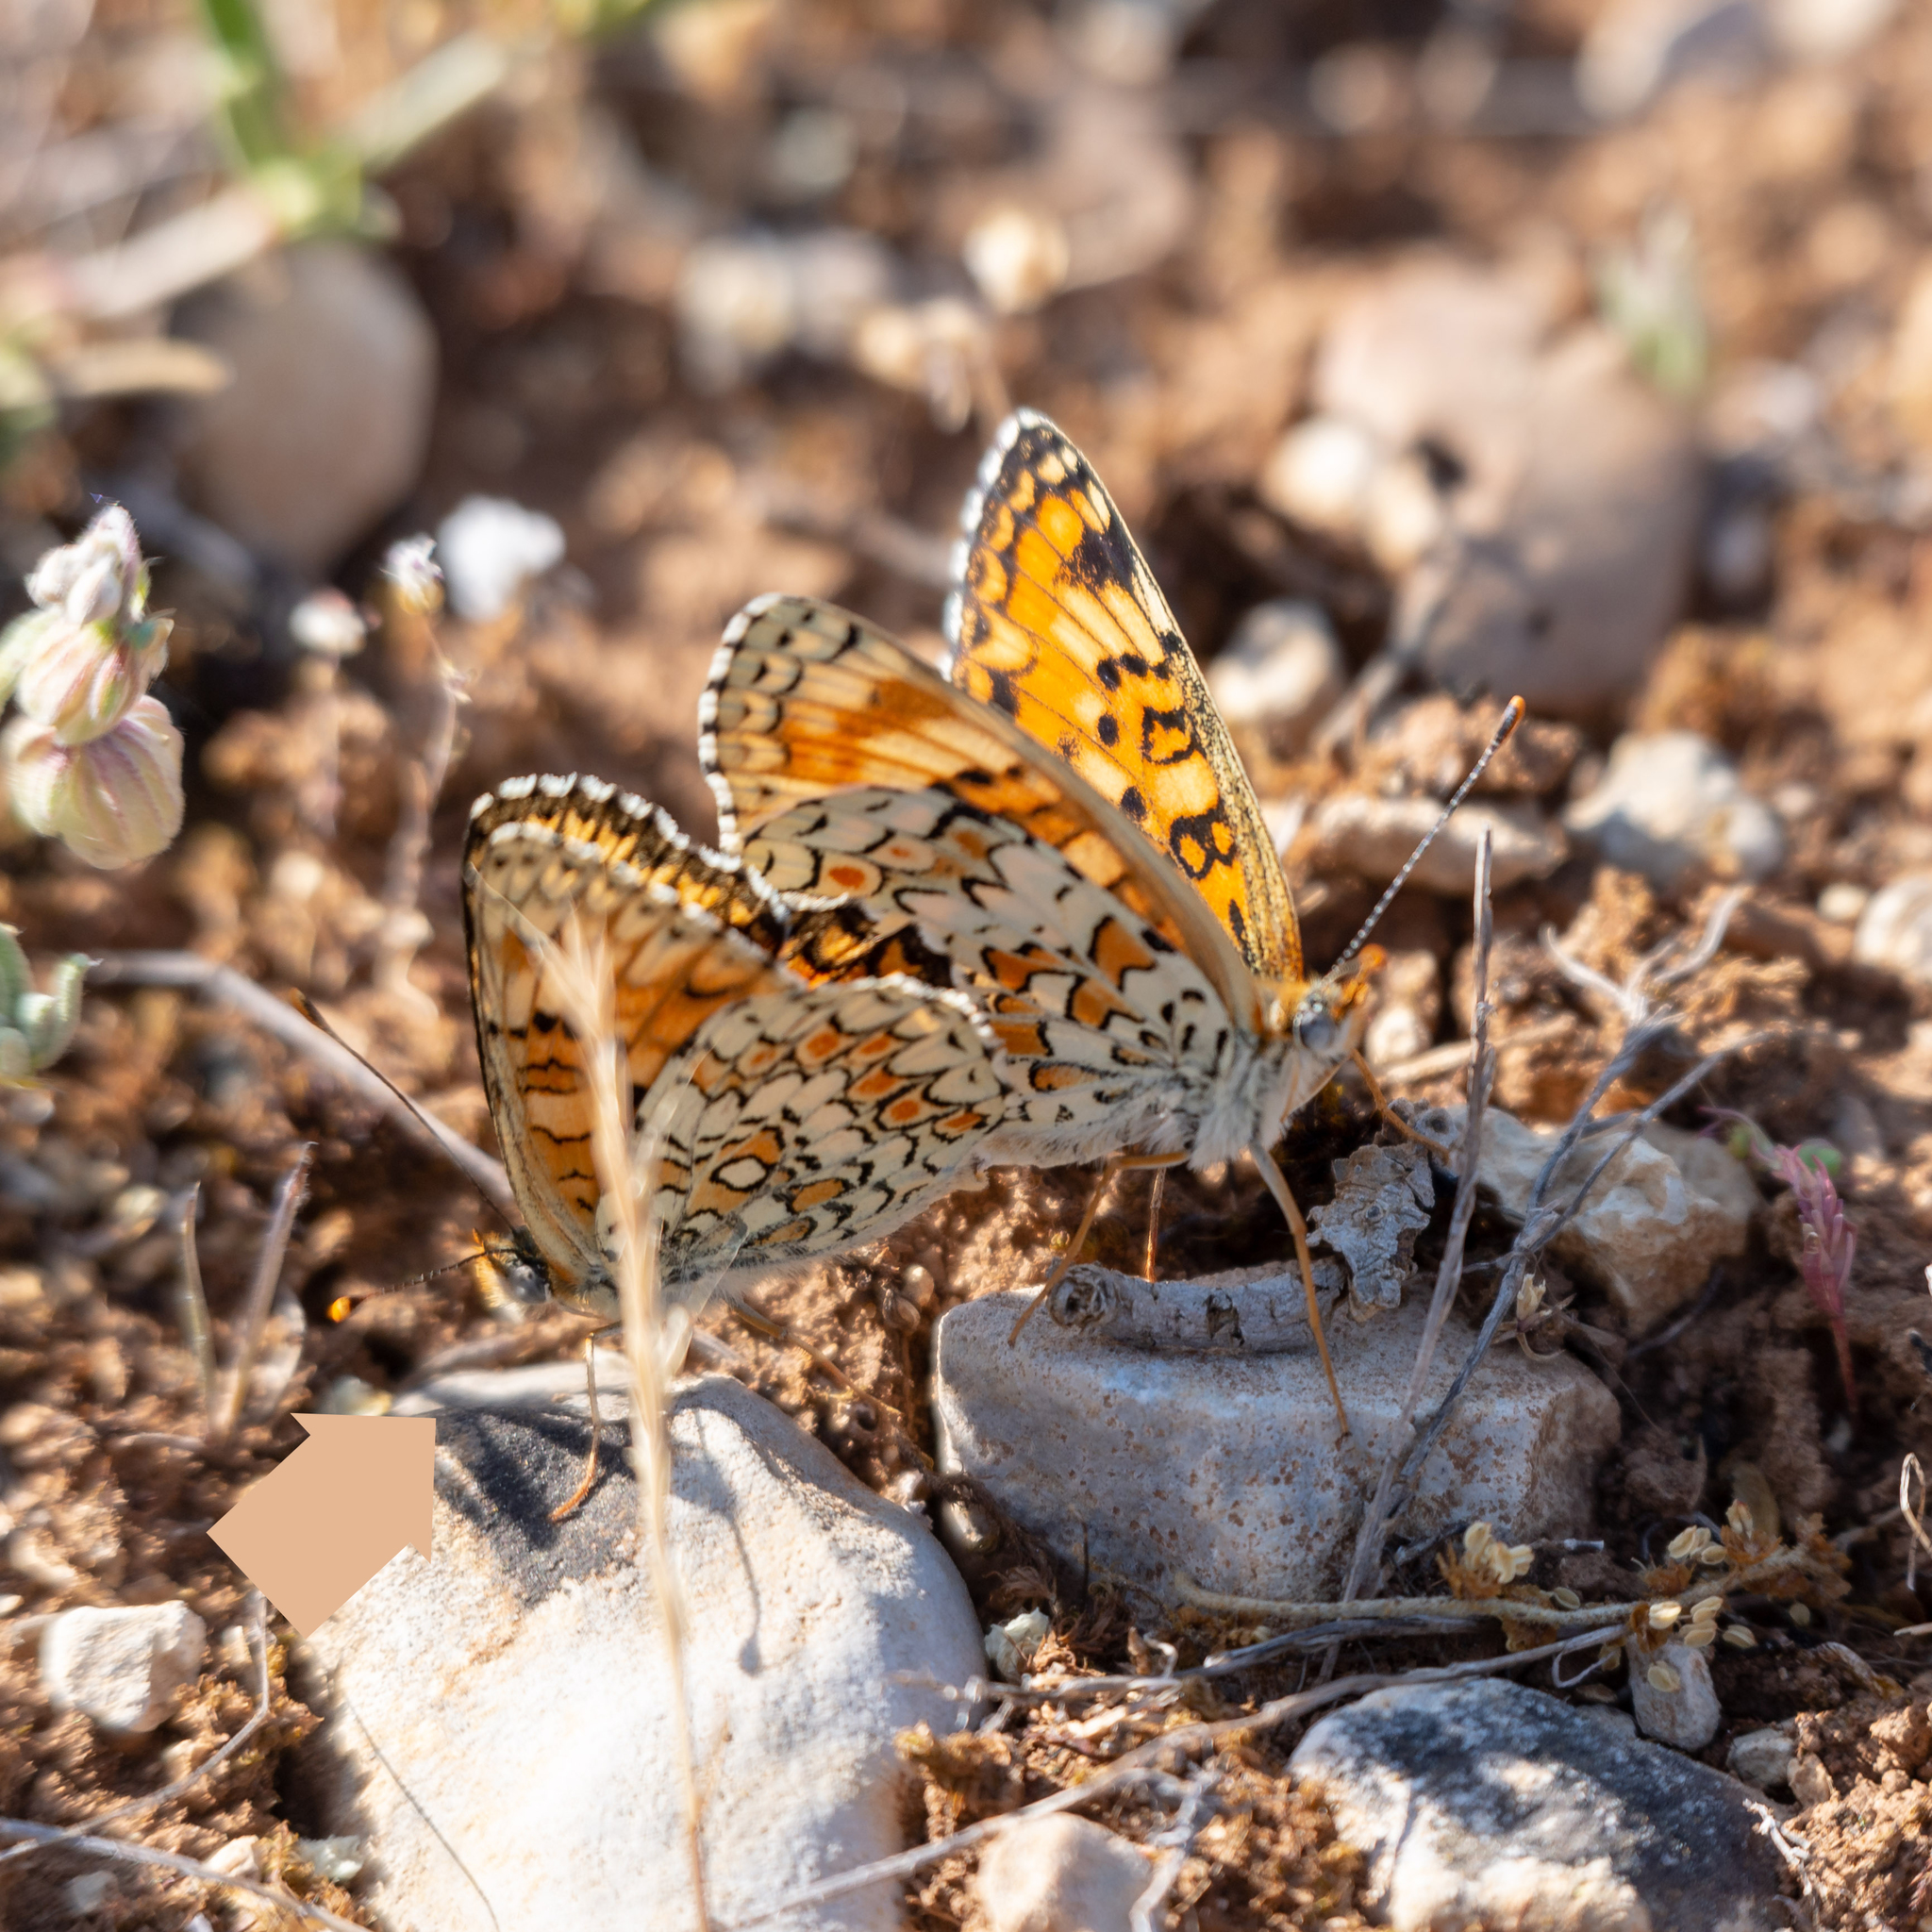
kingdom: Animalia
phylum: Arthropoda
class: Insecta
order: Lepidoptera
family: Nymphalidae
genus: Melitaea
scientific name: Melitaea phoebe
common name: Knapweed fritillary
